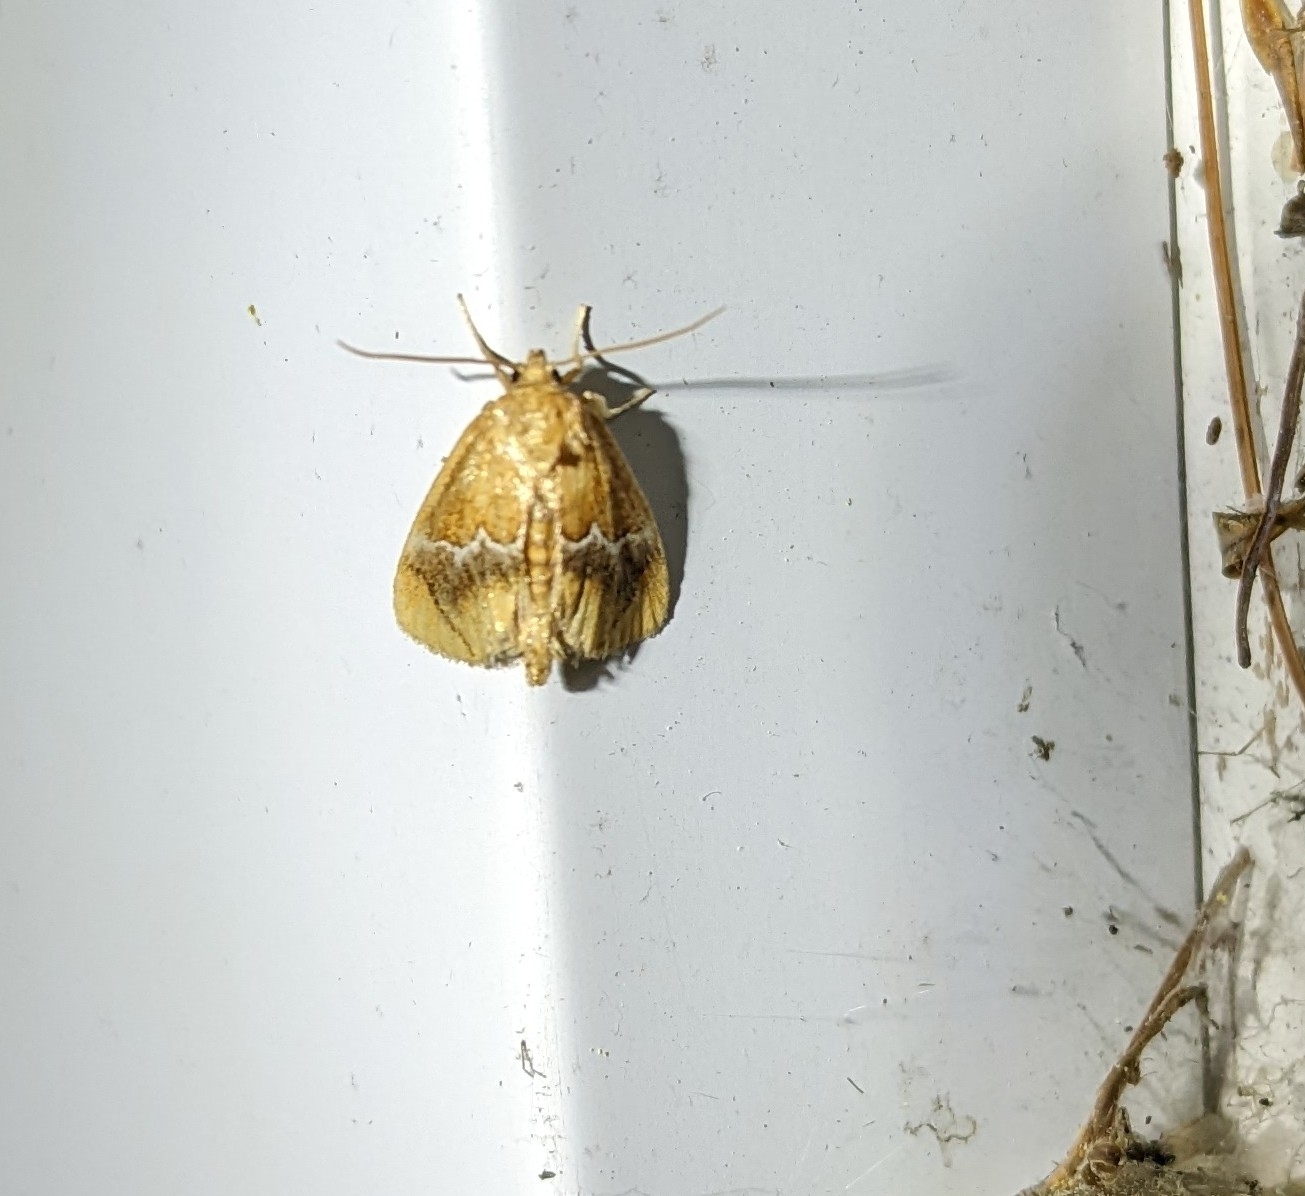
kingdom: Animalia
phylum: Arthropoda
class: Insecta
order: Lepidoptera
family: Limacodidae
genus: Lithacodes
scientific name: Lithacodes fasciola
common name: Yellow-shouldered slug moth
